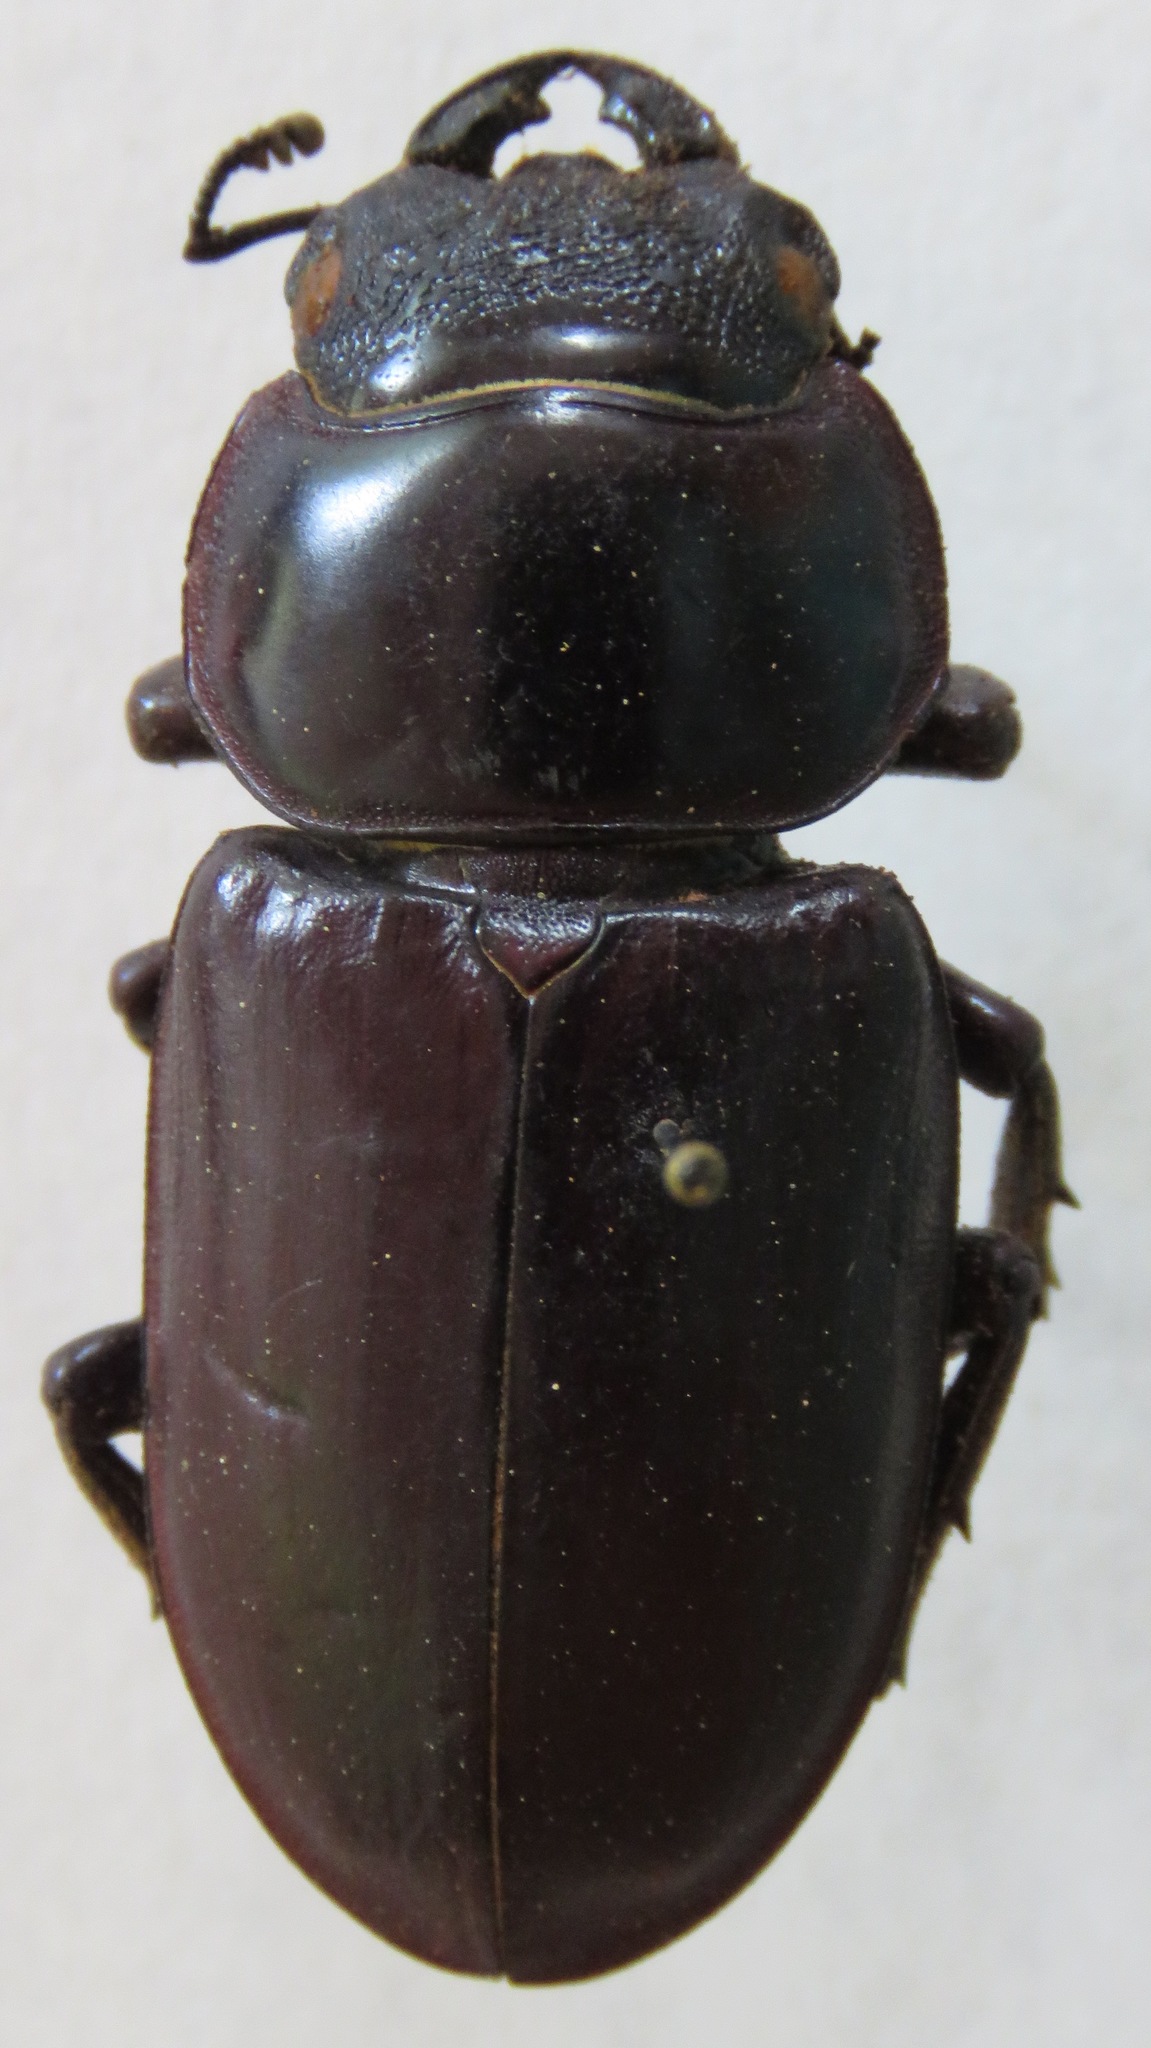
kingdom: Animalia
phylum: Arthropoda
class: Insecta
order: Coleoptera
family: Lucanidae
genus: Dorcus
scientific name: Dorcus antaeus
